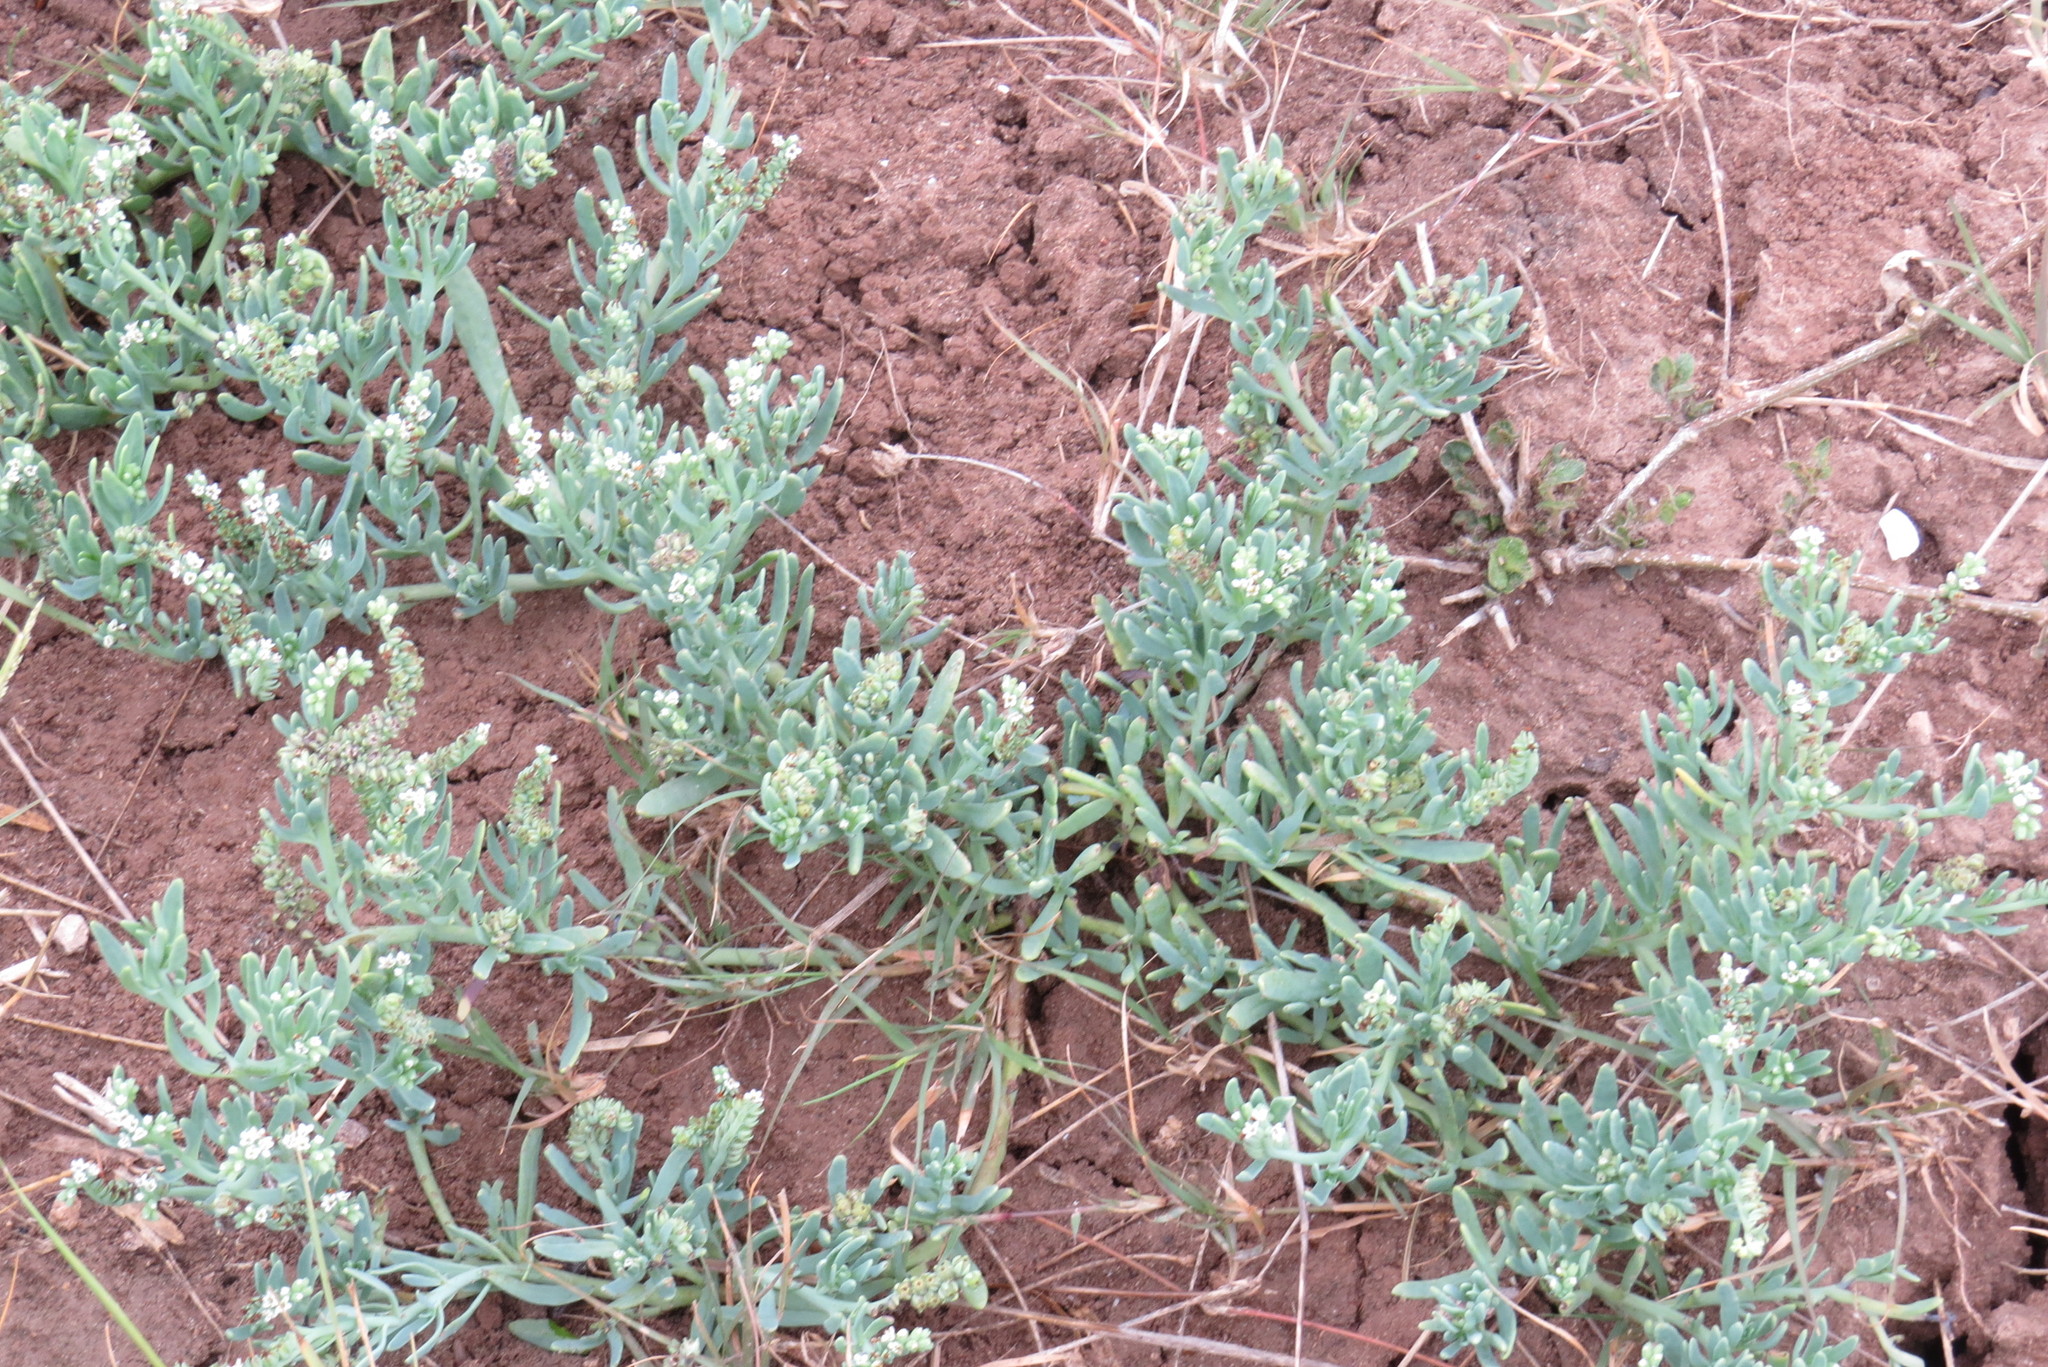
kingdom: Plantae
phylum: Tracheophyta
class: Magnoliopsida
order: Boraginales
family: Heliotropiaceae
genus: Heliotropium
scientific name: Heliotropium curassavicum
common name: Seaside heliotrope
